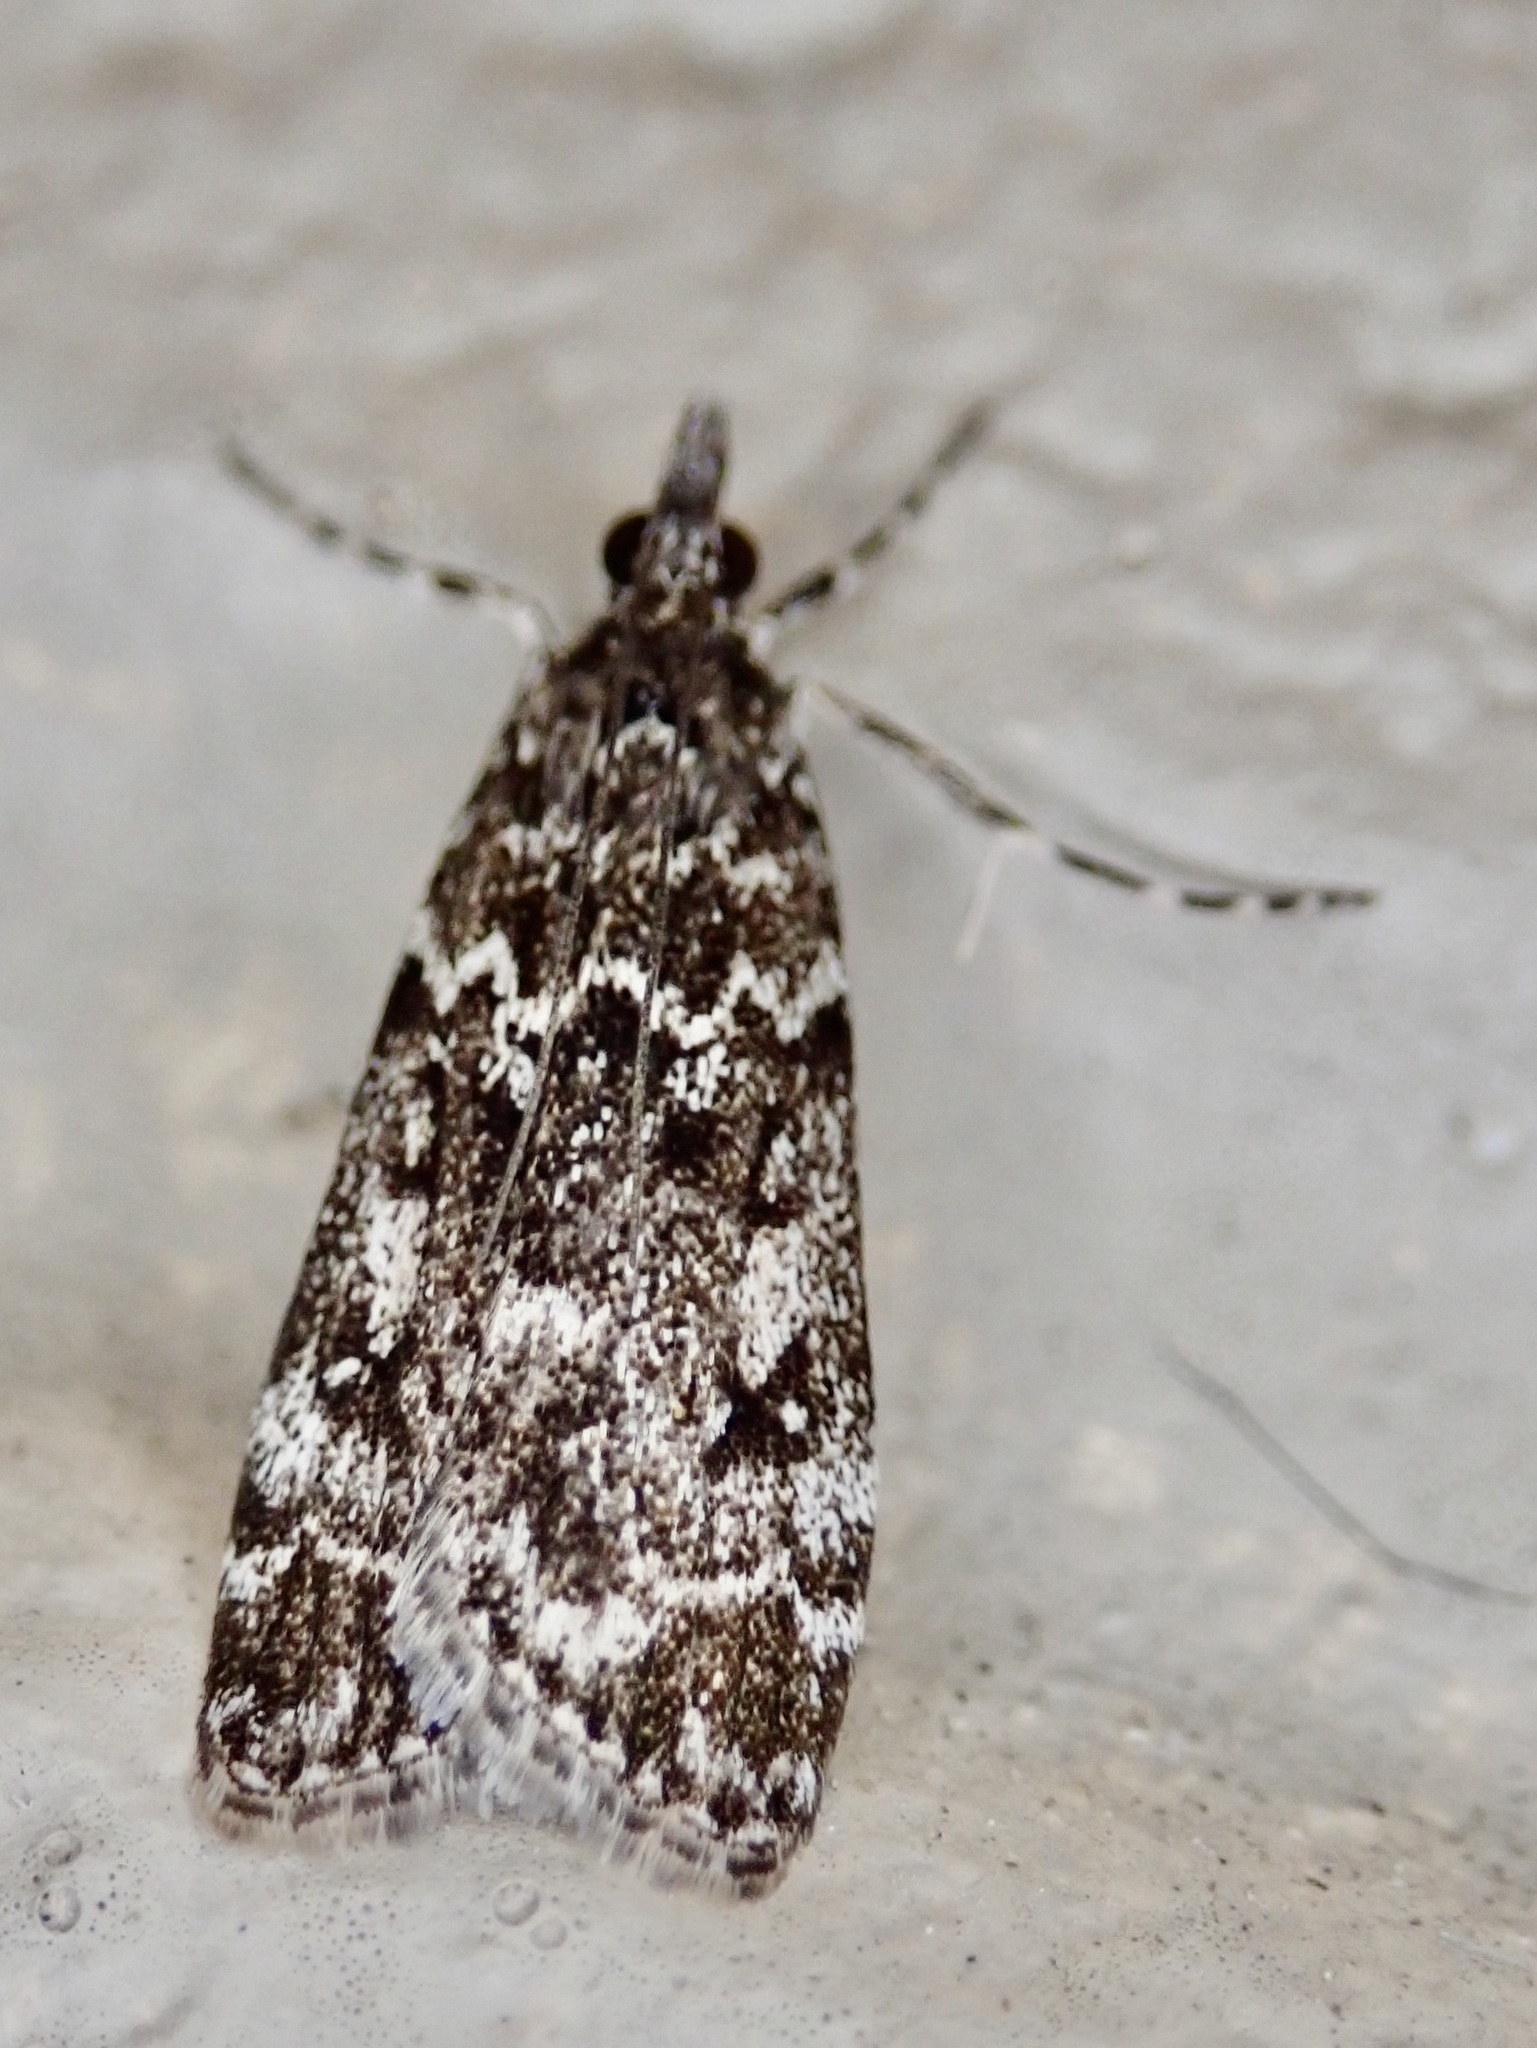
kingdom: Animalia
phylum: Arthropoda
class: Insecta
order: Lepidoptera
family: Crambidae
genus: Eudonia
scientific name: Eudonia philerga
